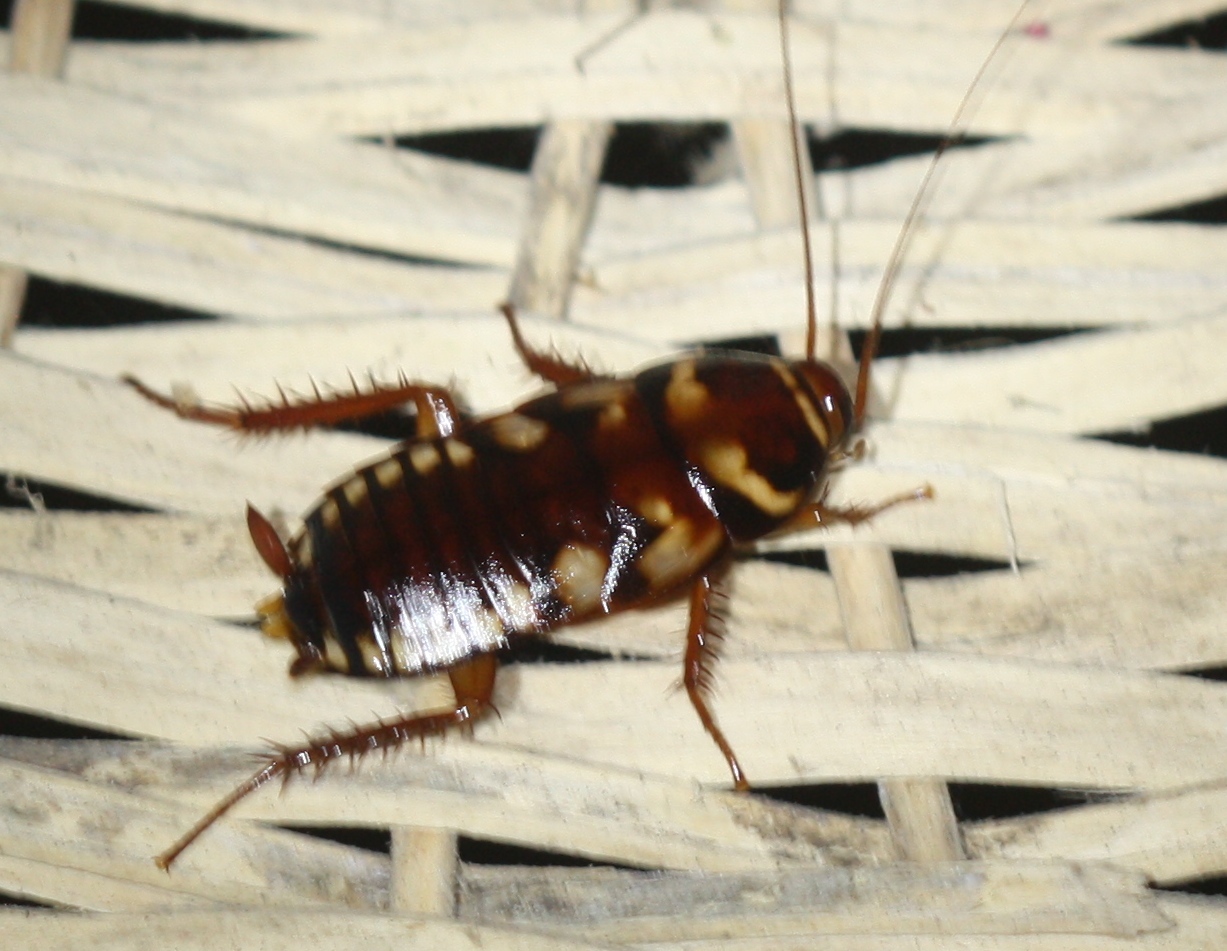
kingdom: Animalia
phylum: Arthropoda
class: Insecta
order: Blattodea
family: Blattidae
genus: Periplaneta
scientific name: Periplaneta australasiae
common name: Australian cockroach
